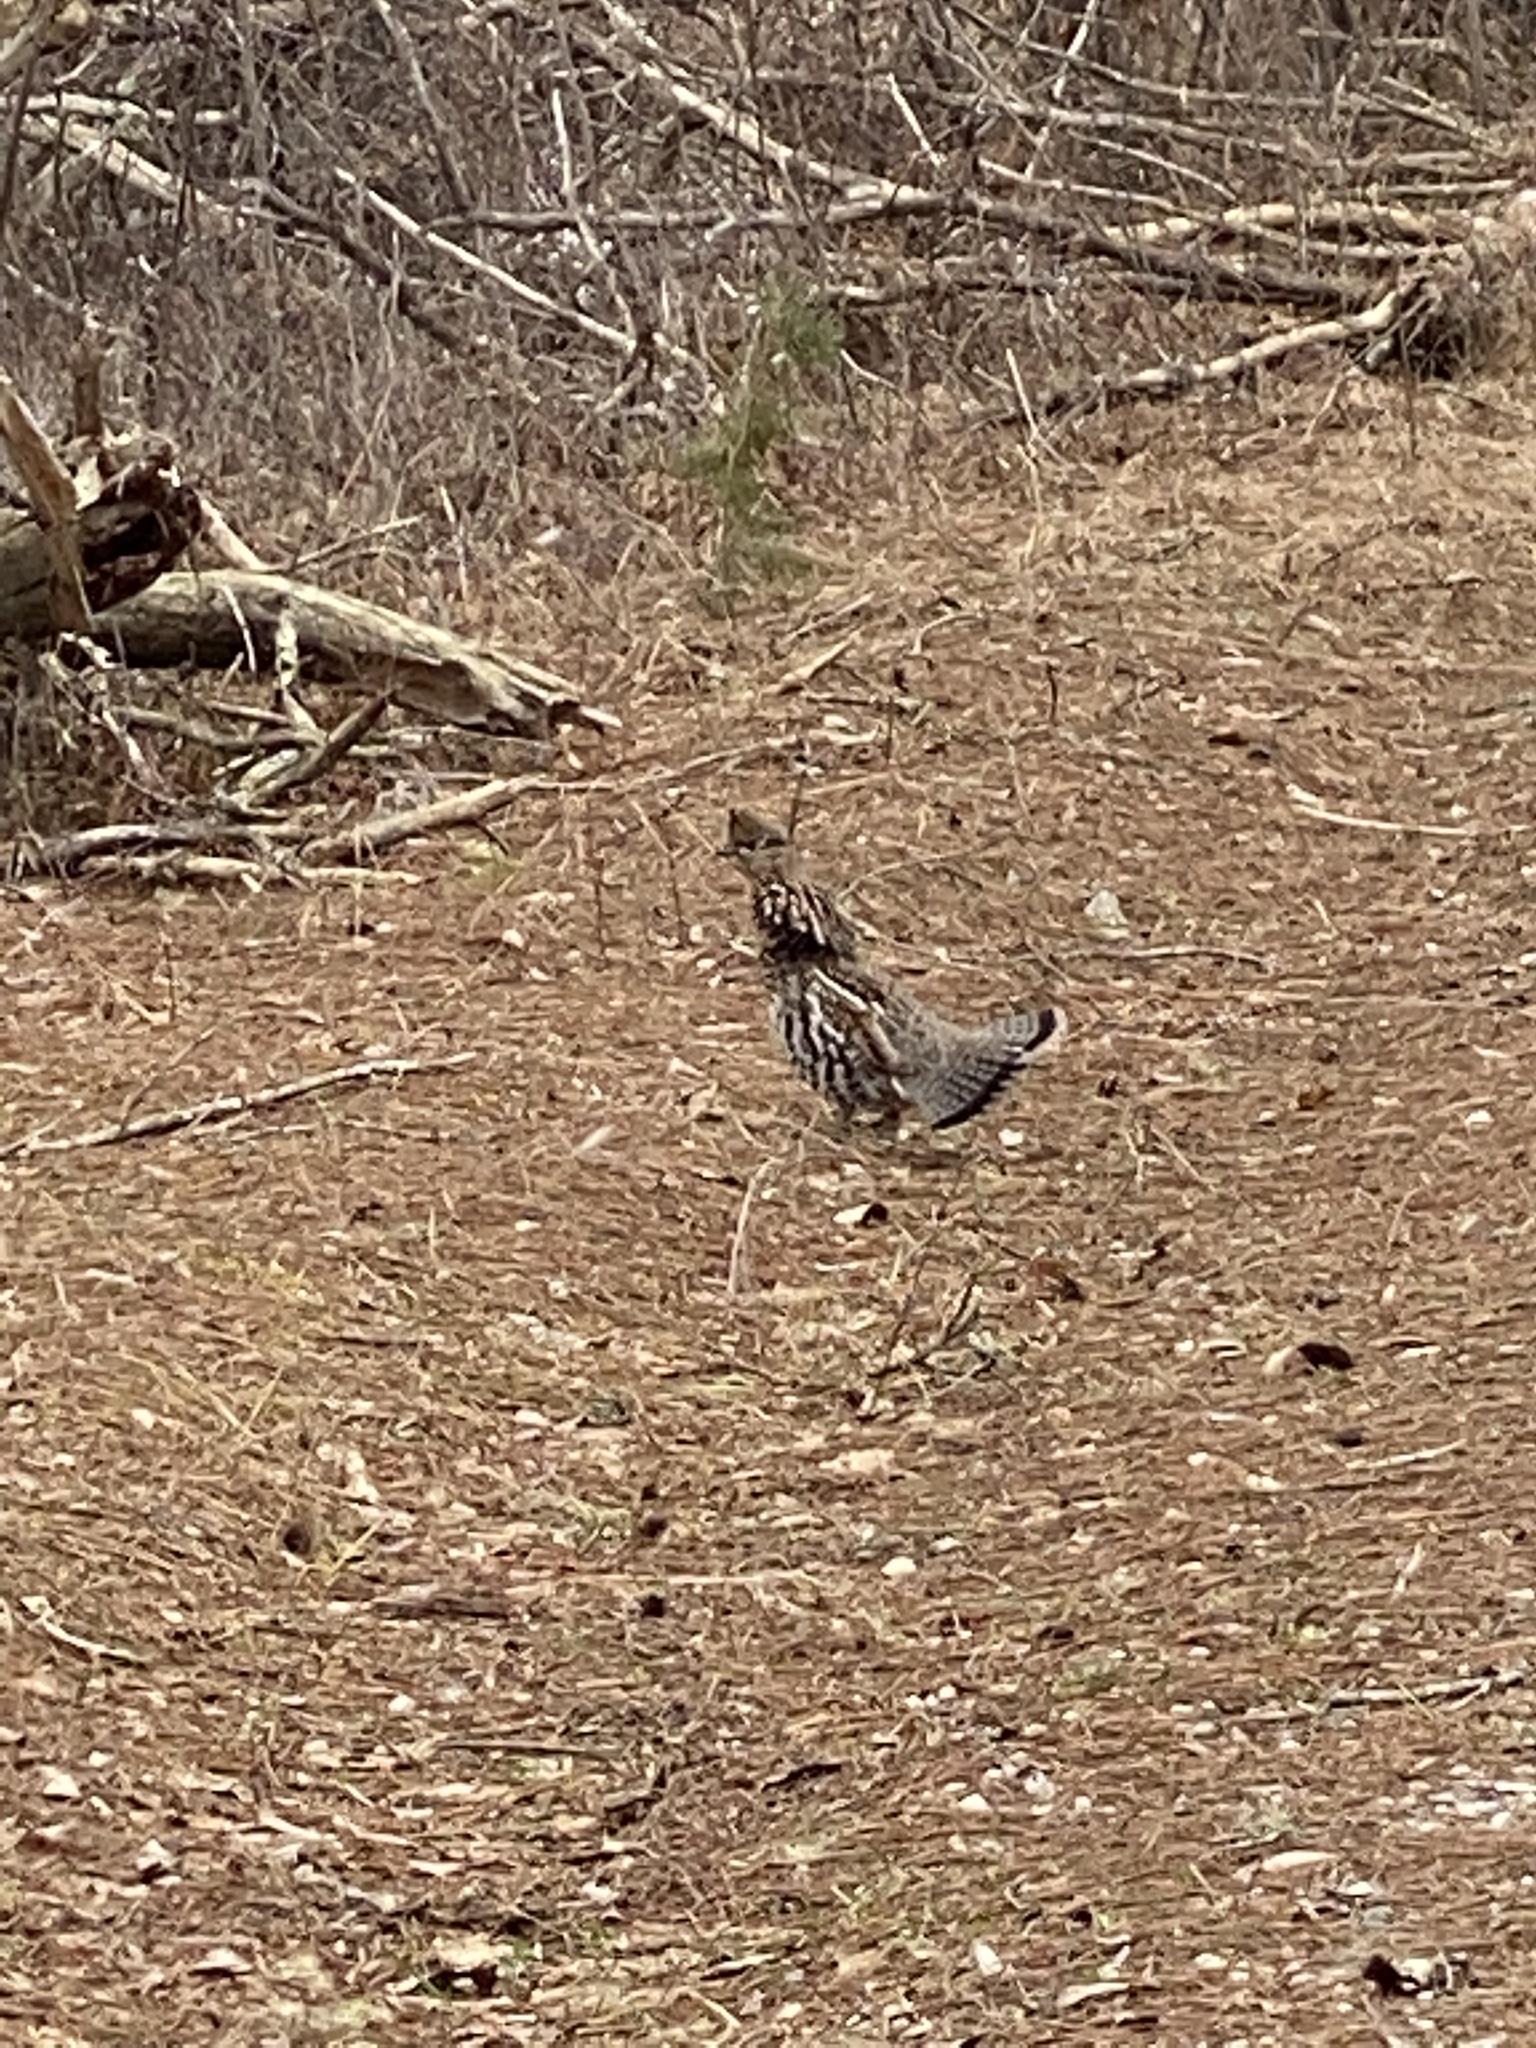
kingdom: Animalia
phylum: Chordata
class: Aves
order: Galliformes
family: Phasianidae
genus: Bonasa
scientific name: Bonasa umbellus
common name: Ruffed grouse
